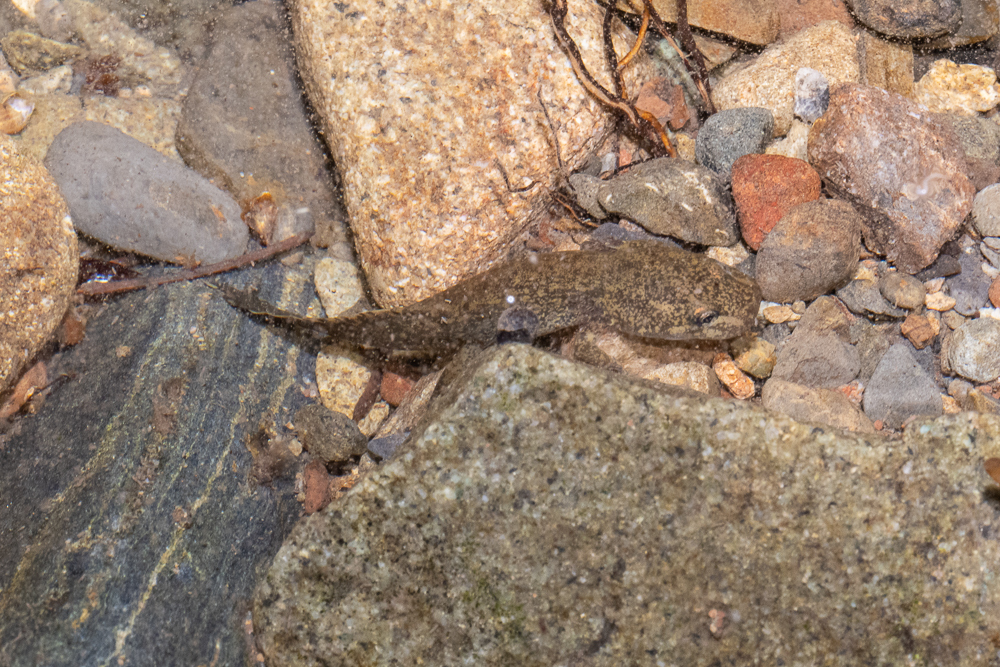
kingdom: Animalia
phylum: Chordata
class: Amphibia
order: Caudata
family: Ambystomatidae
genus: Dicamptodon
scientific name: Dicamptodon ensatus
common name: California giant salamander
